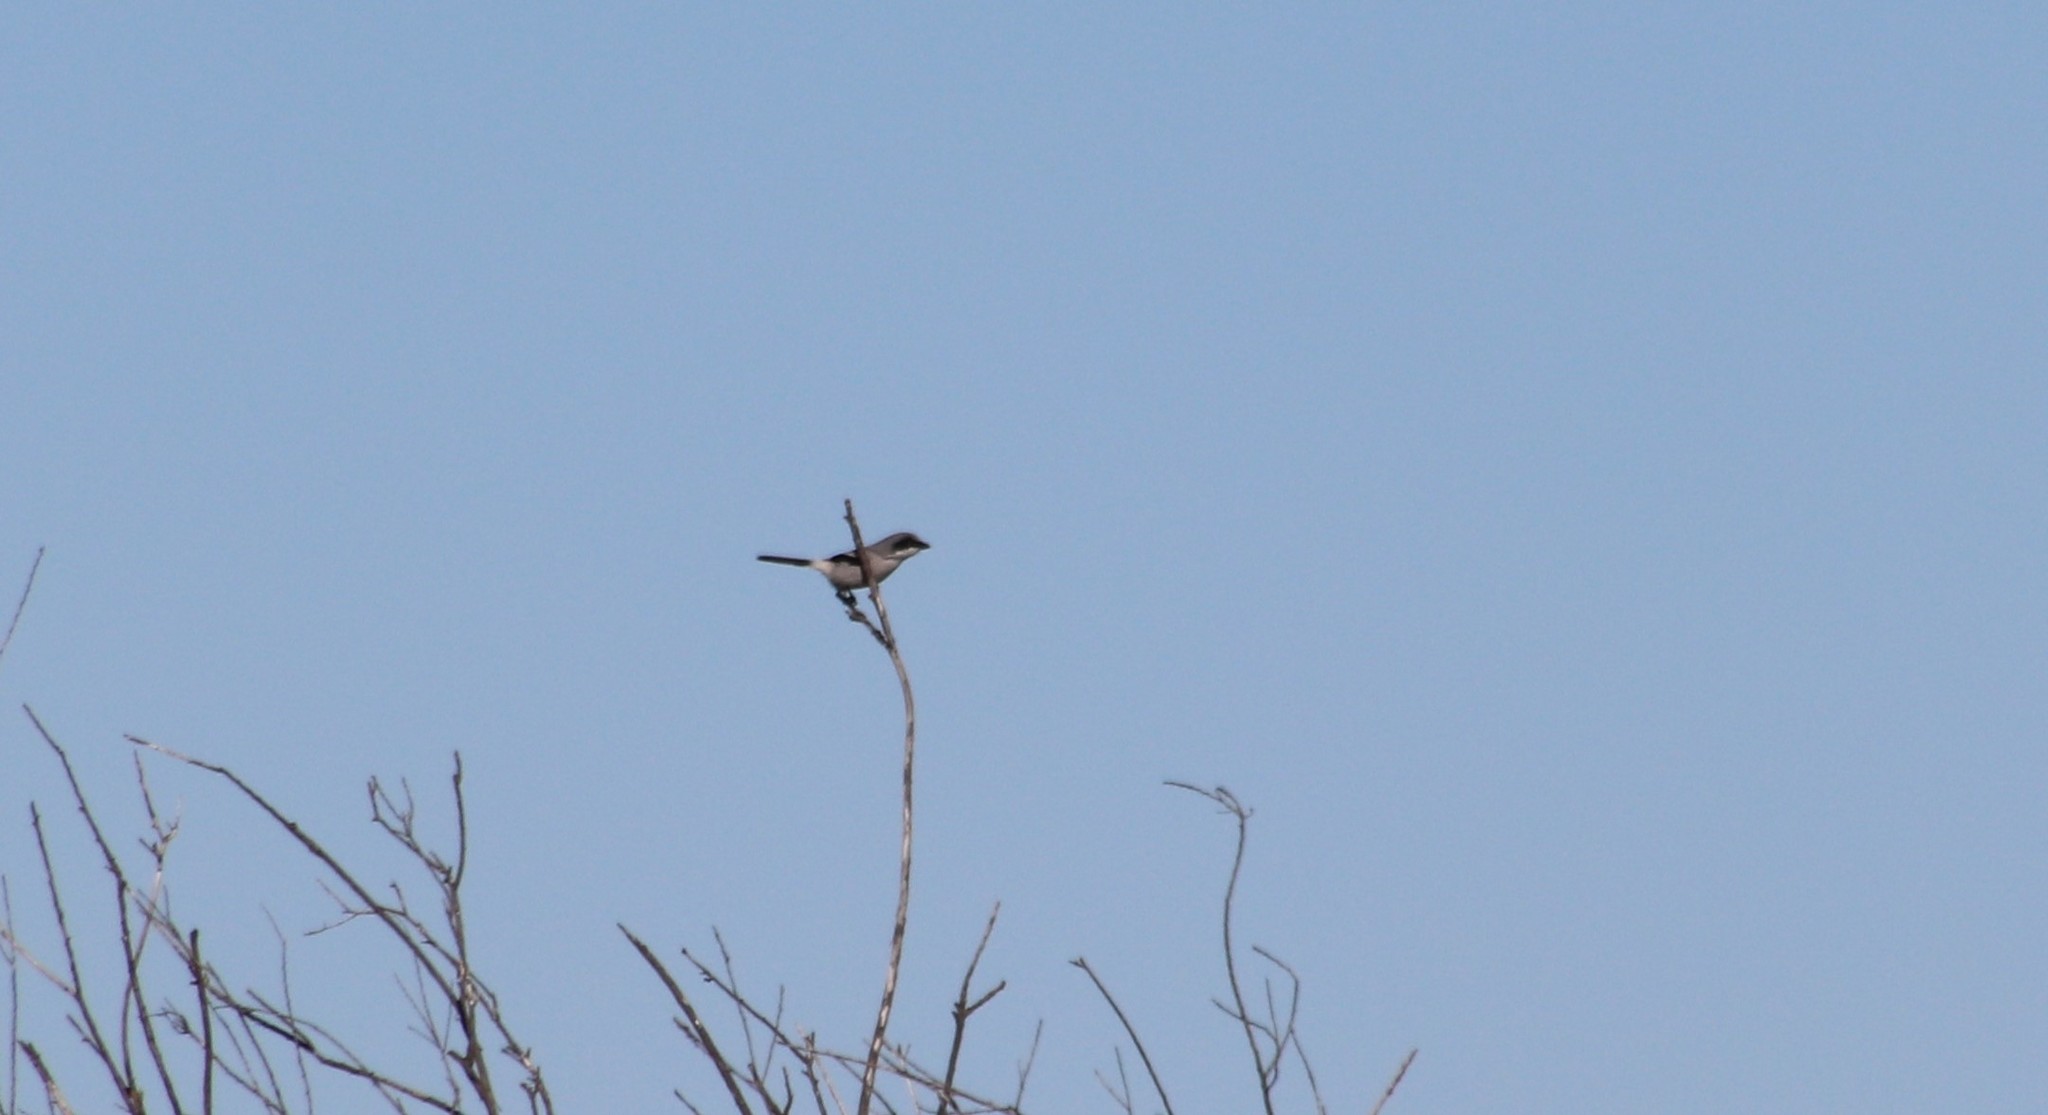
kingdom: Animalia
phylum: Chordata
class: Aves
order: Passeriformes
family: Laniidae
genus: Lanius
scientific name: Lanius ludovicianus
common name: Loggerhead shrike
